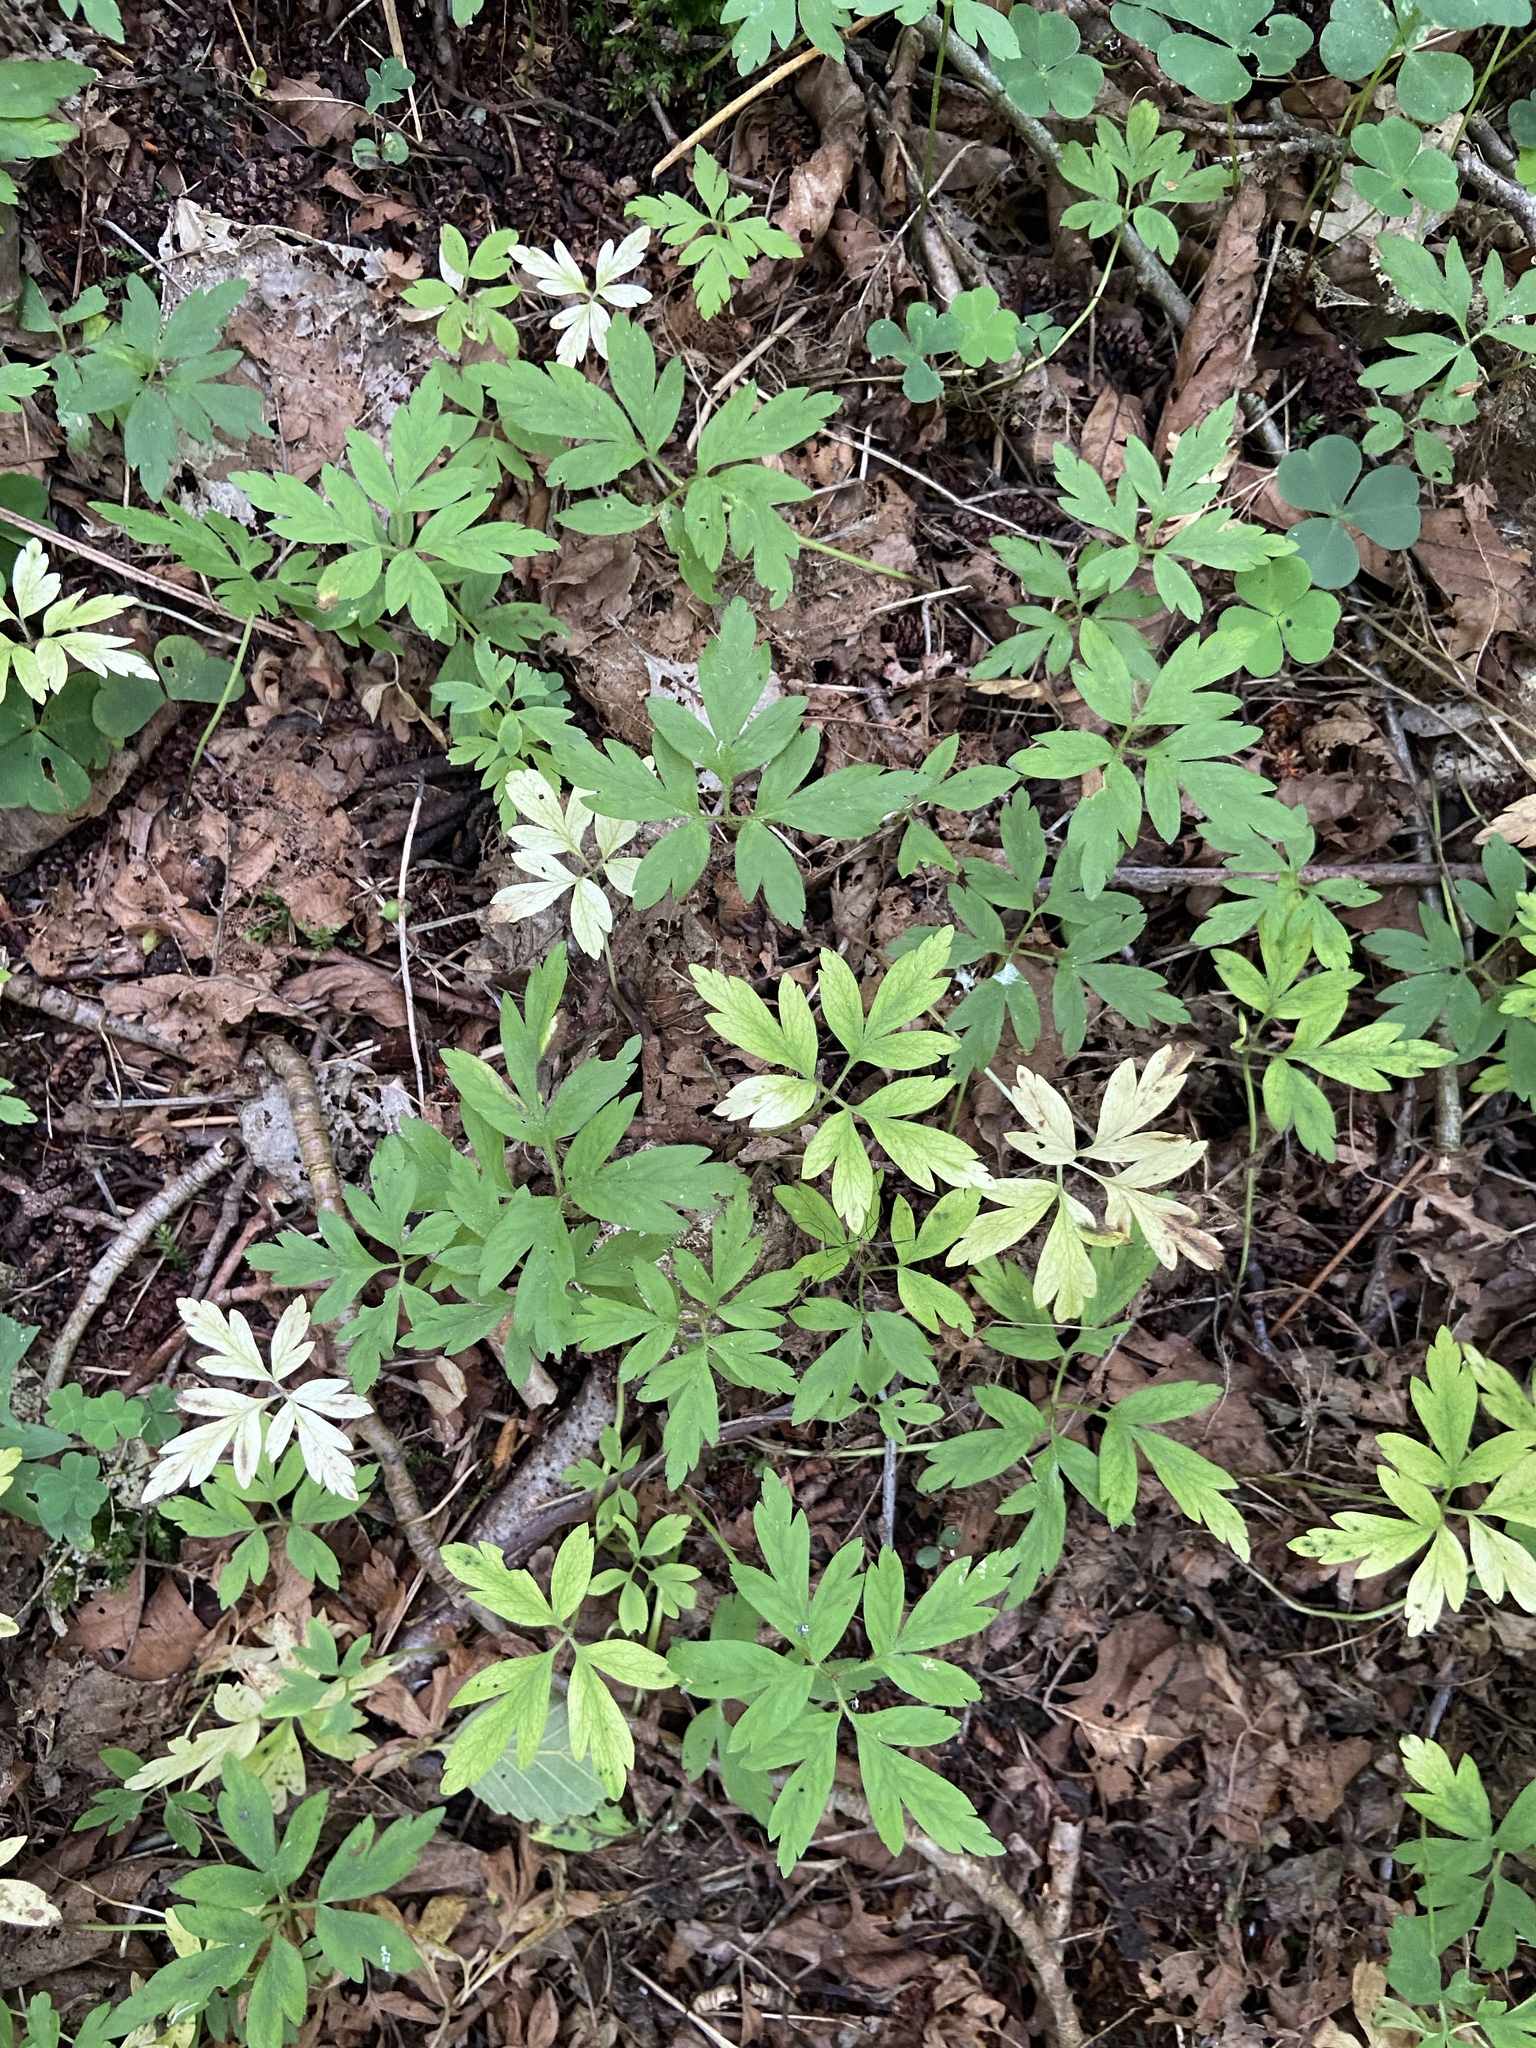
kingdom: Plantae
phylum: Tracheophyta
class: Magnoliopsida
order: Ranunculales
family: Ranunculaceae
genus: Anemone
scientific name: Anemone nemorosa
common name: Wood anemone
